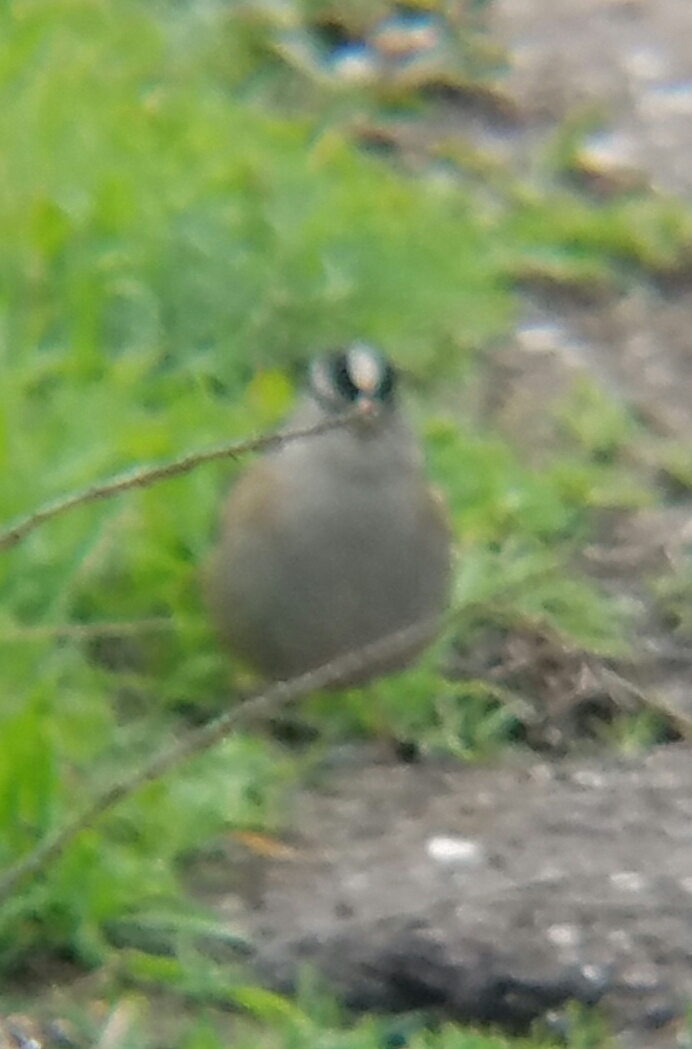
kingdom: Animalia
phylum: Chordata
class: Aves
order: Passeriformes
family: Passerellidae
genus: Zonotrichia
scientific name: Zonotrichia leucophrys
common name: White-crowned sparrow
